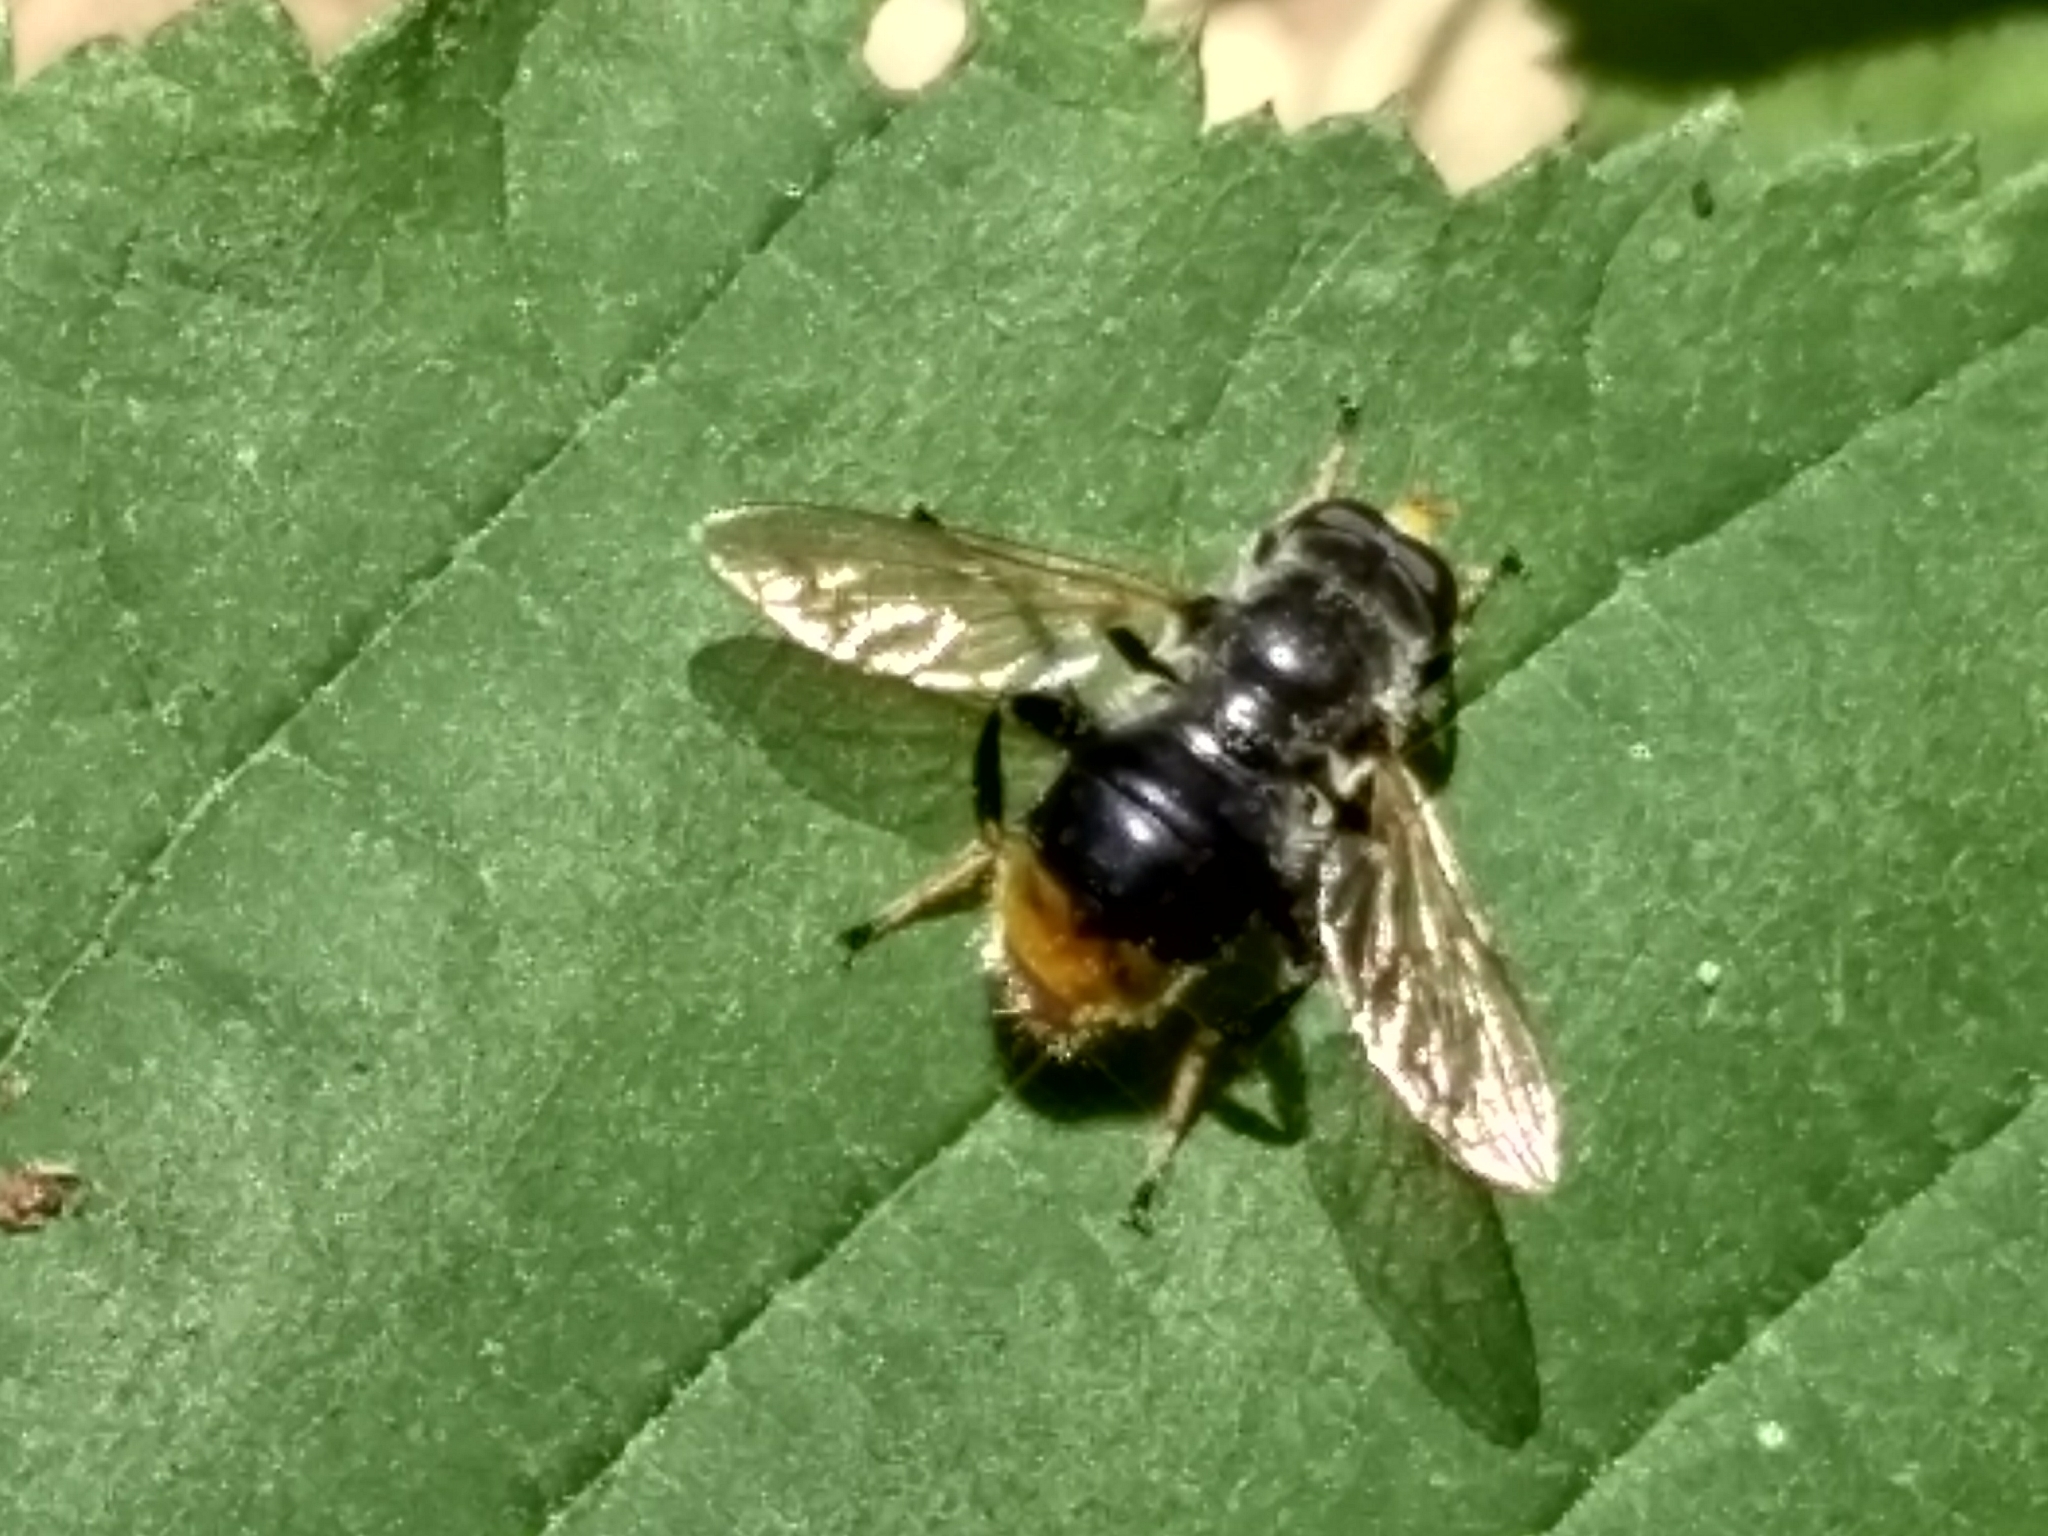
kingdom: Animalia
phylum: Arthropoda
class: Insecta
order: Diptera
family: Syrphidae
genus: Blera
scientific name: Blera analis
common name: Orange-tailed wood fly
